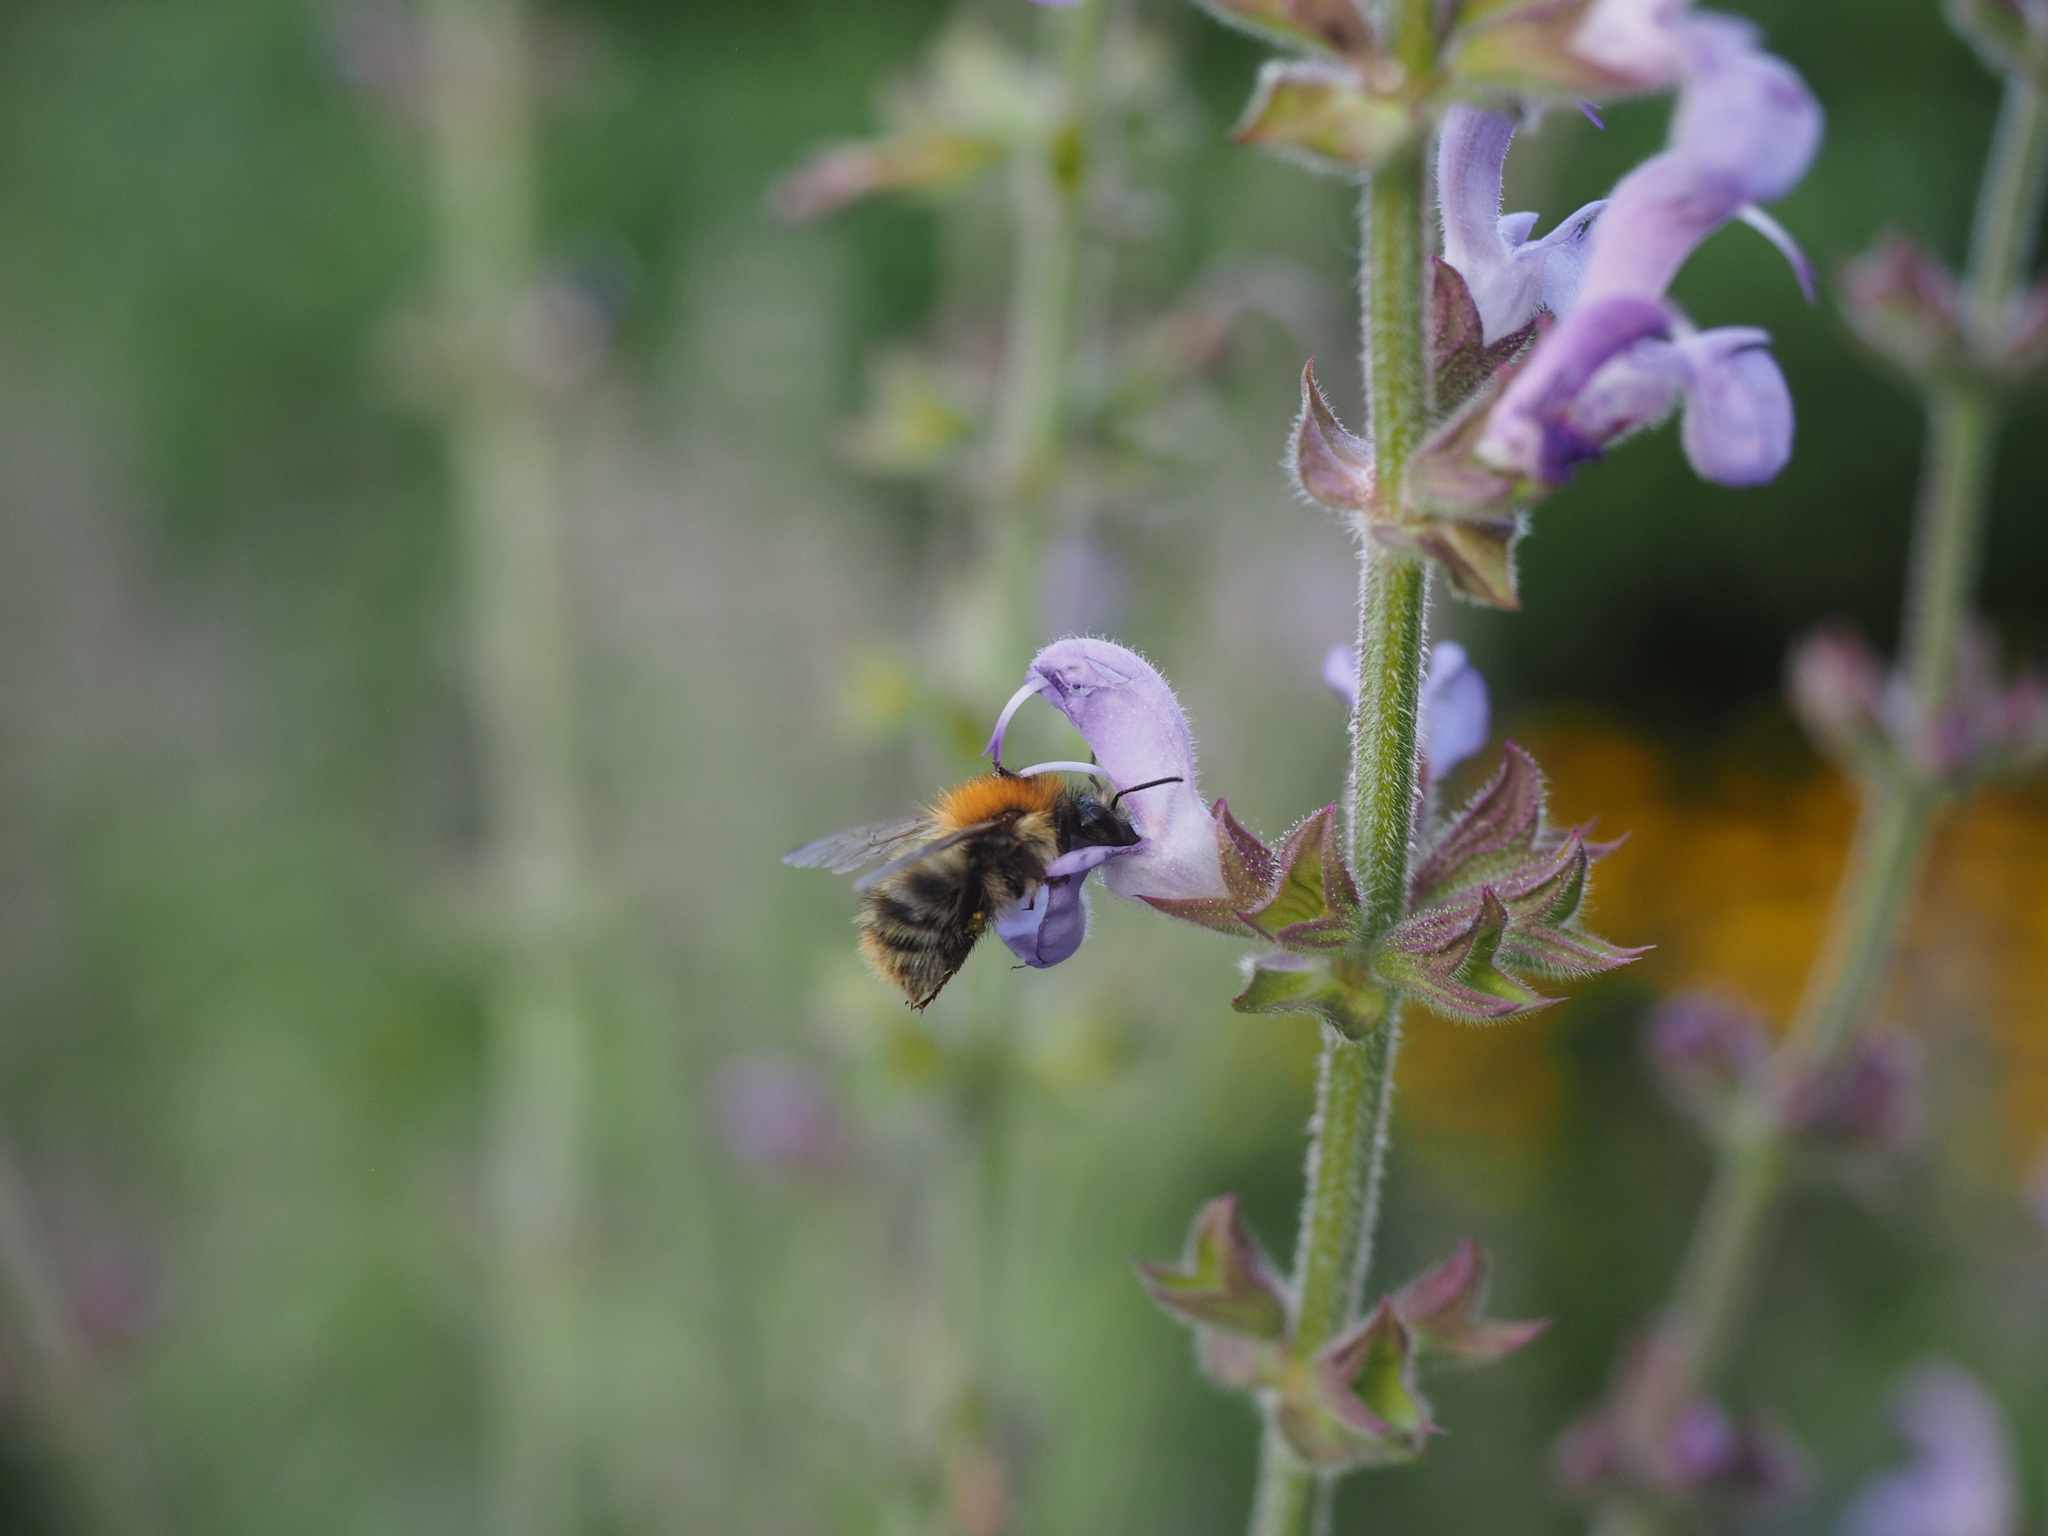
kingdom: Animalia
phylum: Arthropoda
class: Insecta
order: Hymenoptera
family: Apidae
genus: Bombus
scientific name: Bombus pascuorum
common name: Common carder bee
